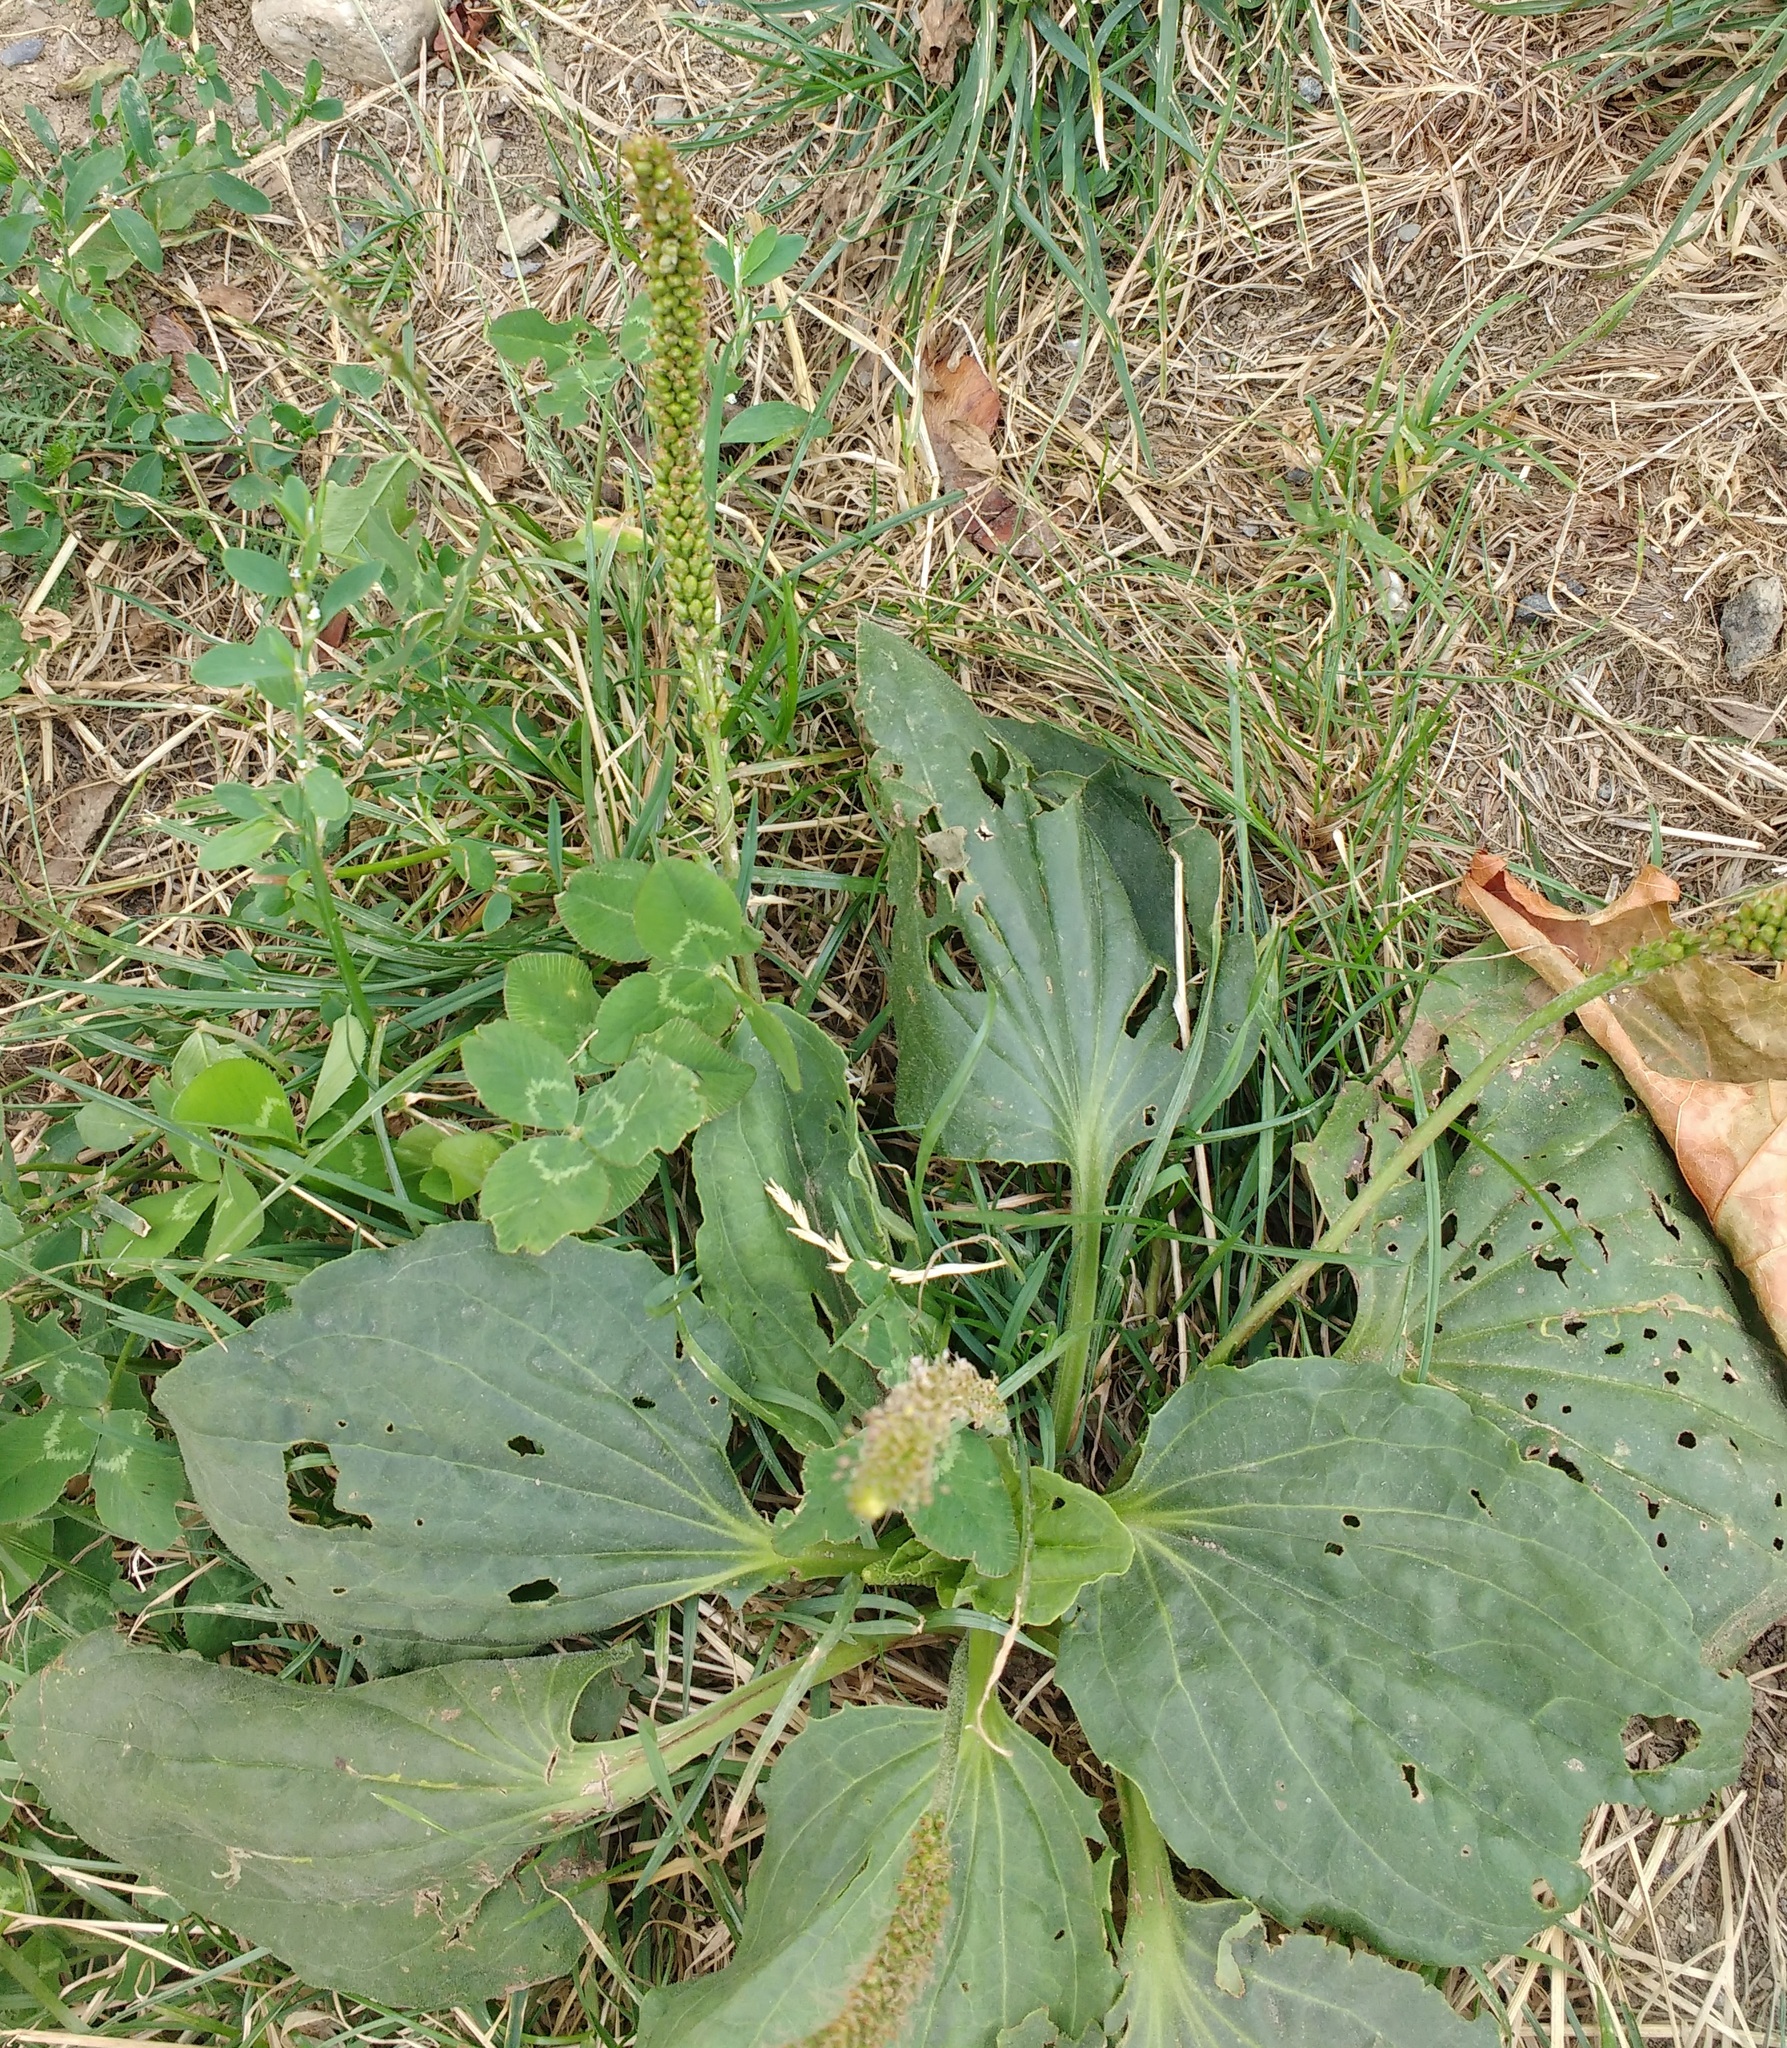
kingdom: Plantae
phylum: Tracheophyta
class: Magnoliopsida
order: Lamiales
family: Plantaginaceae
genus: Plantago
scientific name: Plantago major
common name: Common plantain
